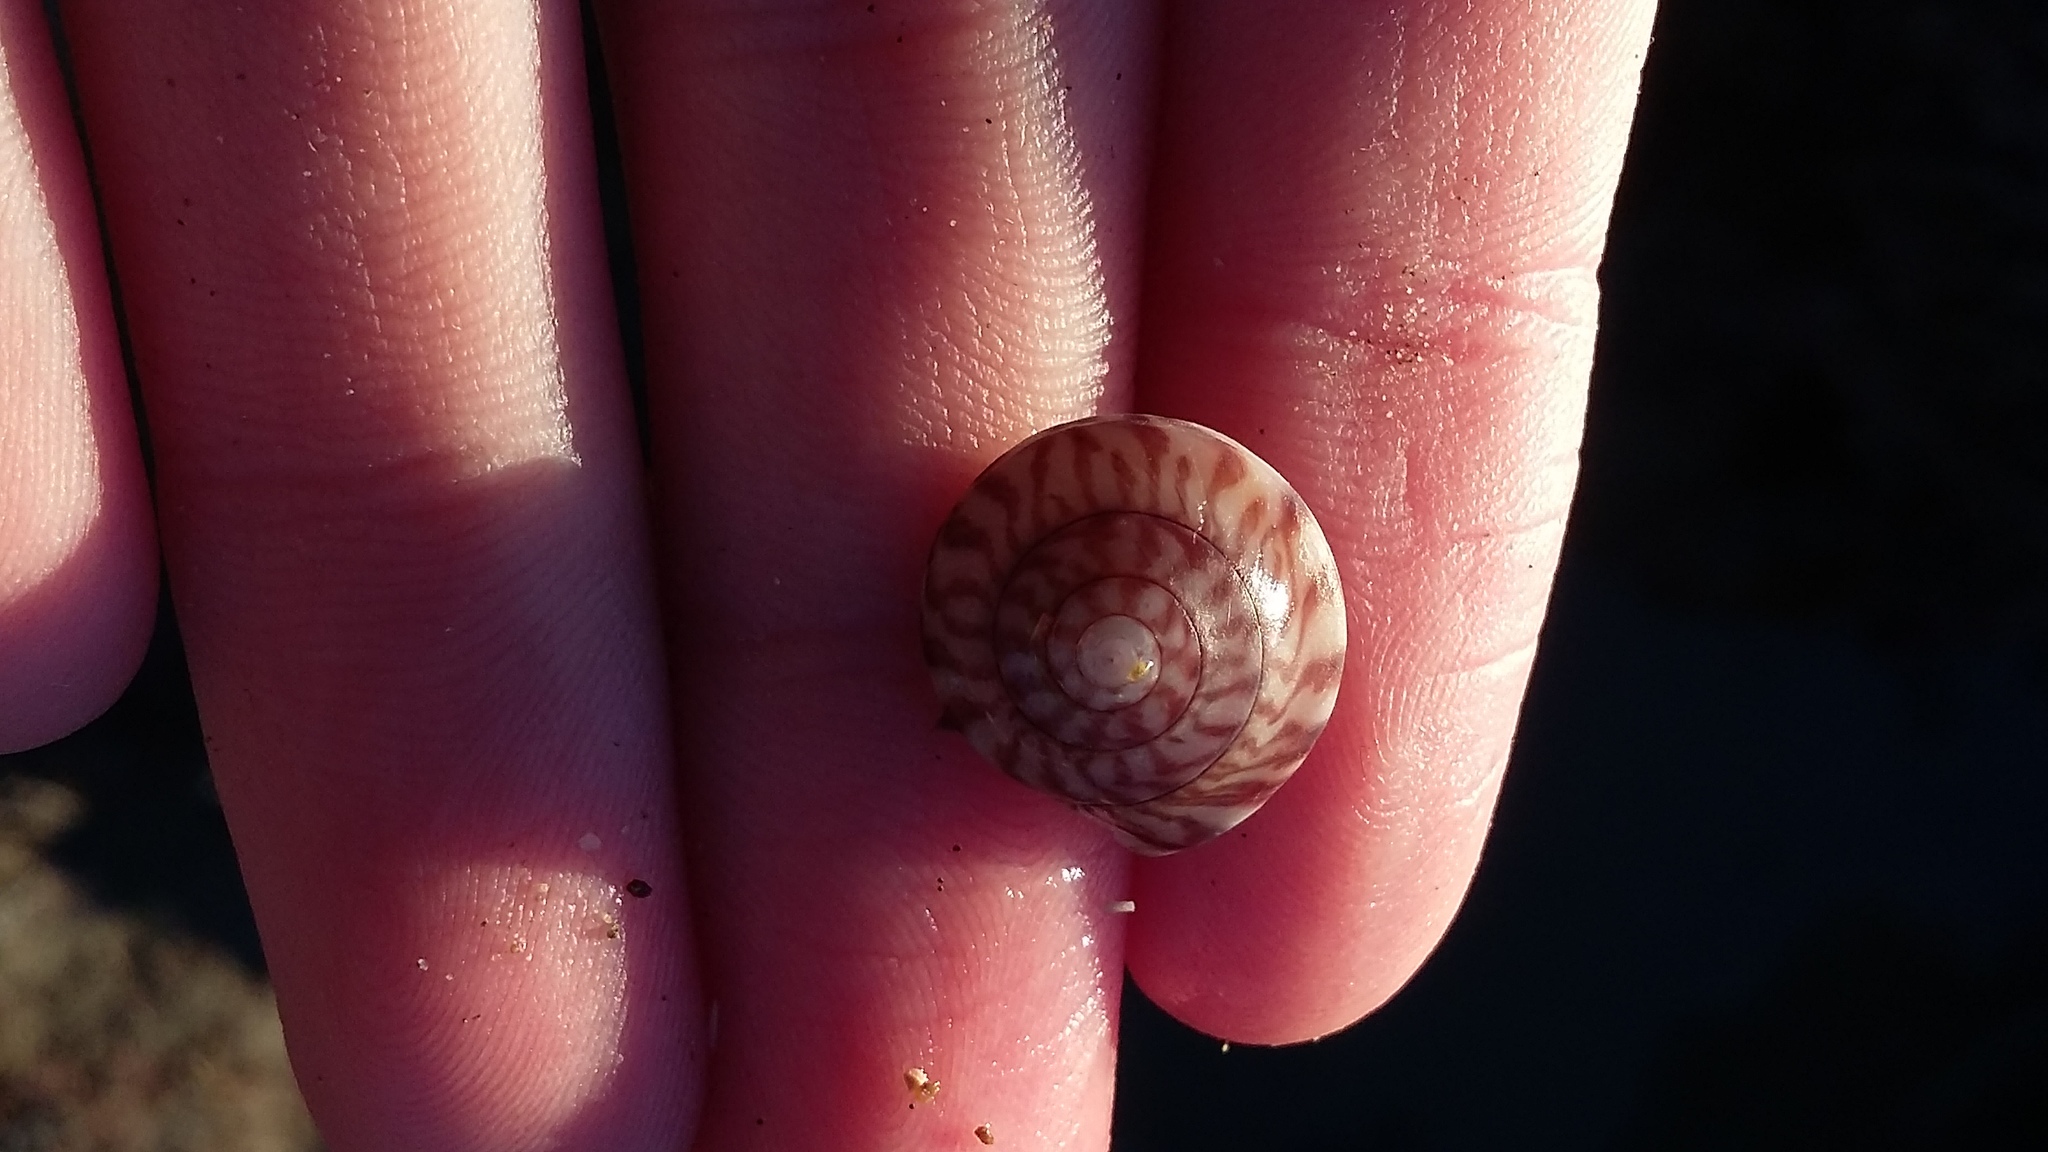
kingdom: Animalia
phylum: Mollusca
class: Gastropoda
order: Trochida
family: Trochidae
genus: Zethalia
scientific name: Zethalia zelandica
